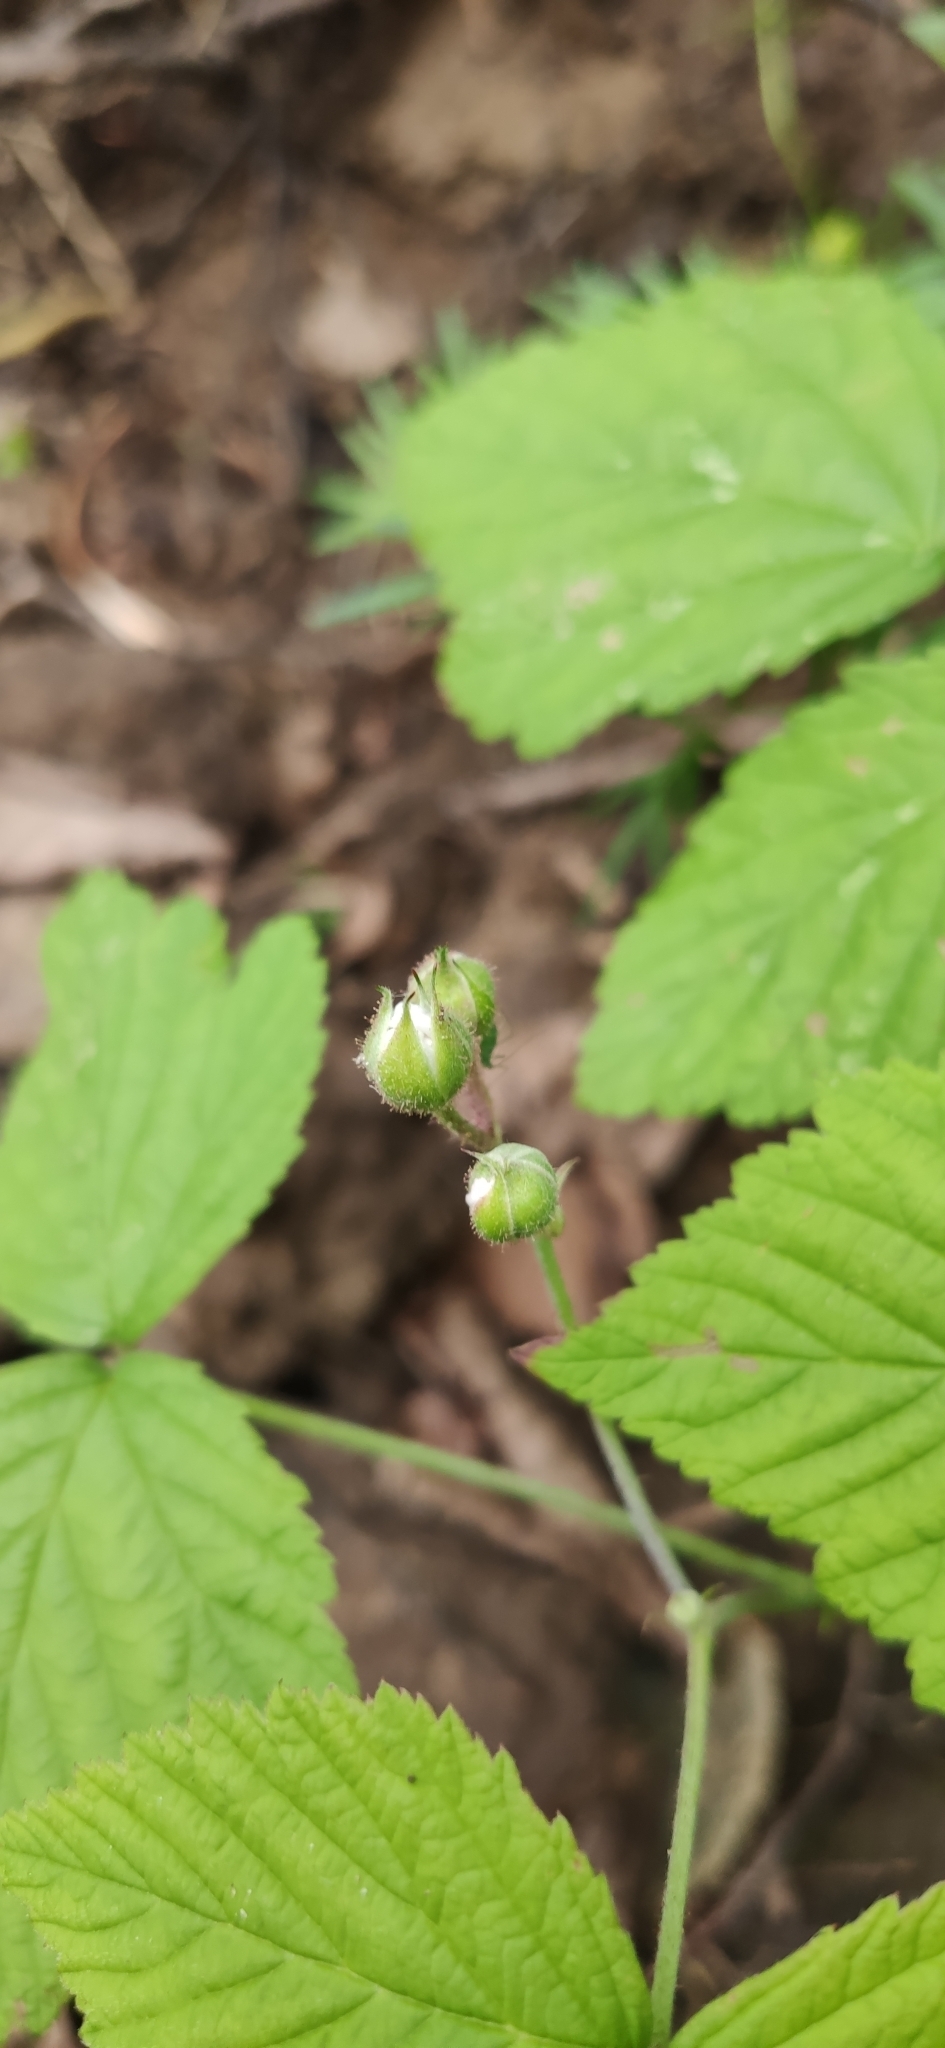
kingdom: Plantae
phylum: Tracheophyta
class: Magnoliopsida
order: Rosales
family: Rosaceae
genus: Rubus
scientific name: Rubus caesius
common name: Dewberry
